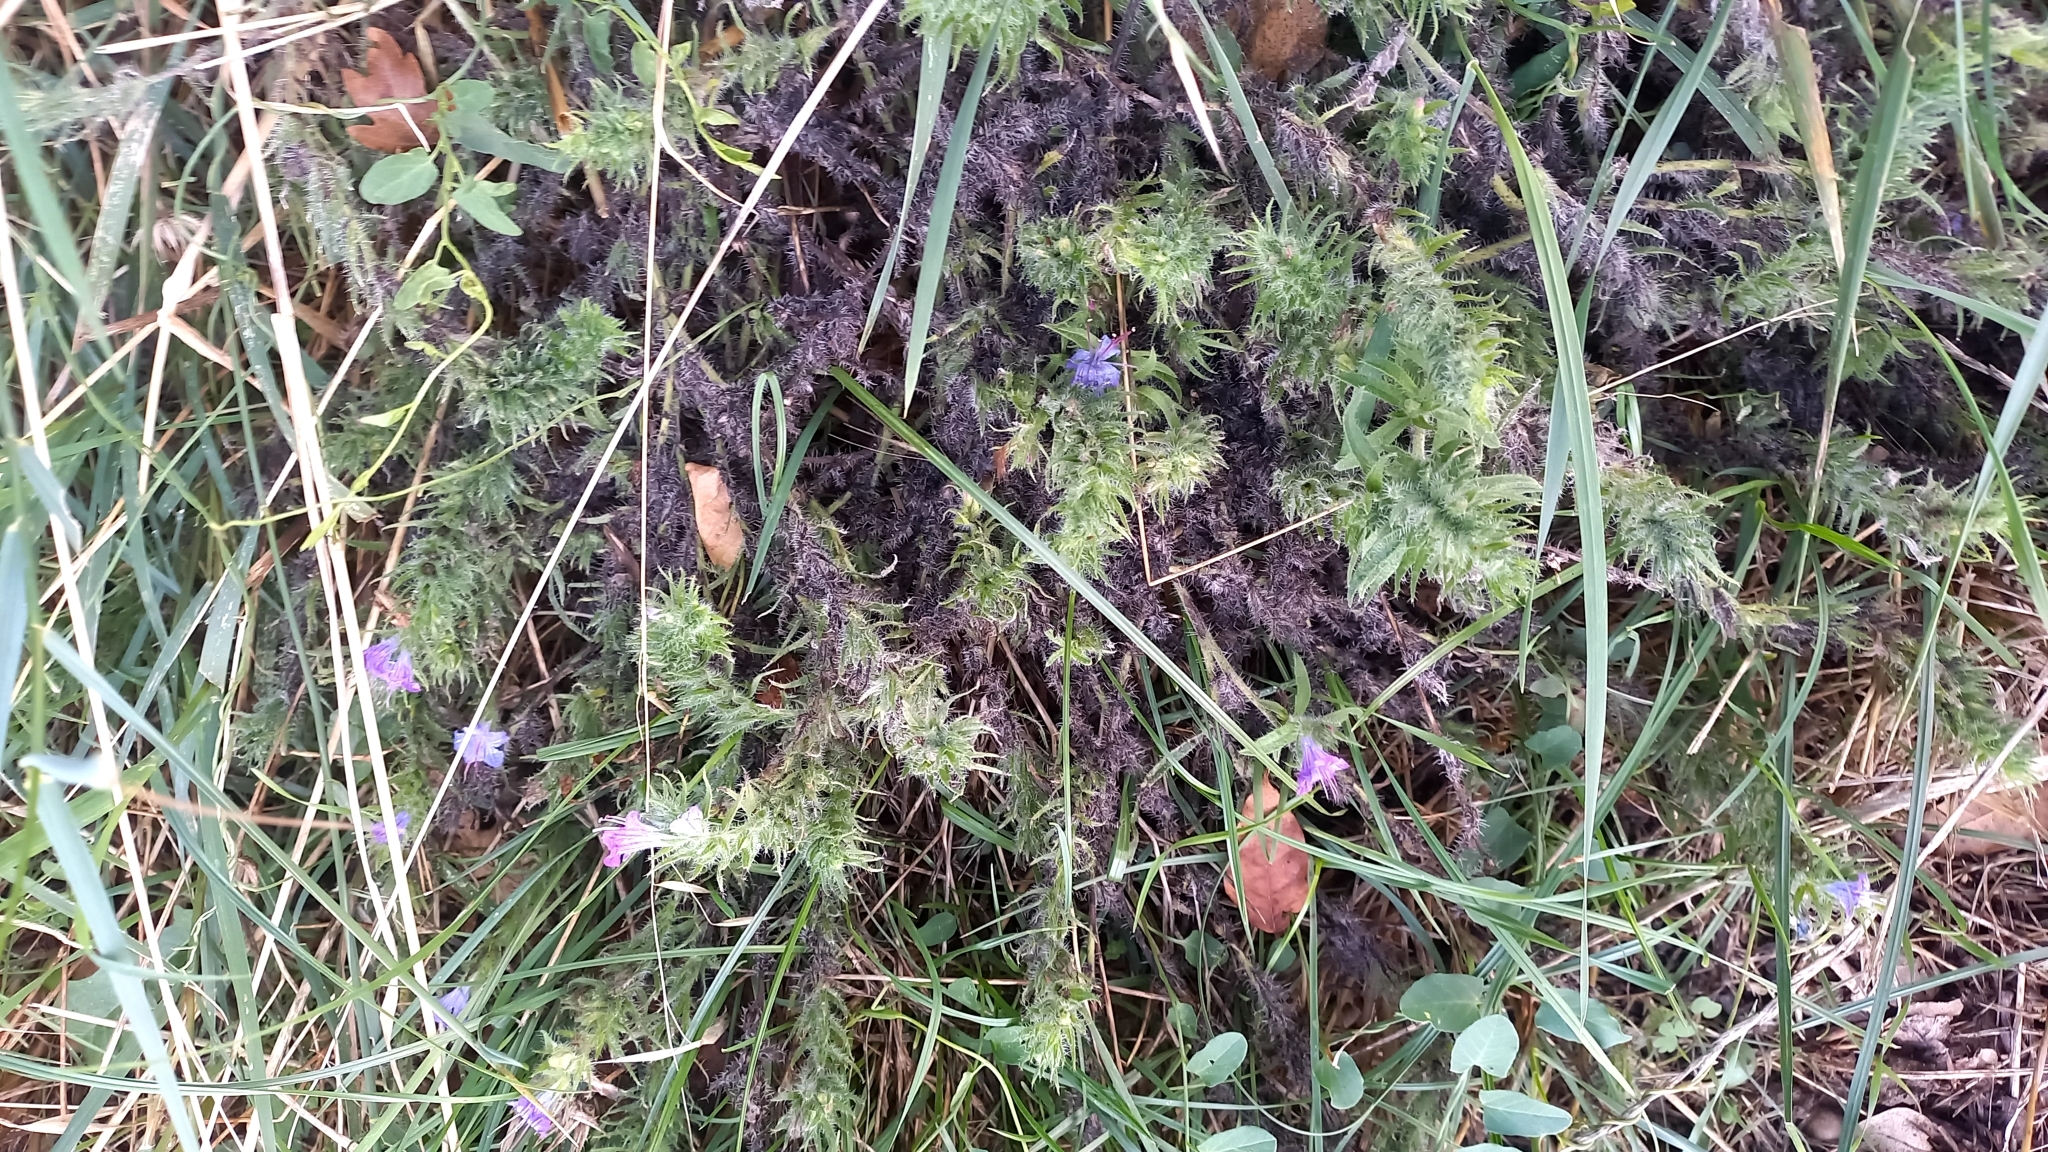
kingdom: Plantae
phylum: Tracheophyta
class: Magnoliopsida
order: Boraginales
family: Boraginaceae
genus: Echium
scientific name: Echium vulgare
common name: Common viper's bugloss
